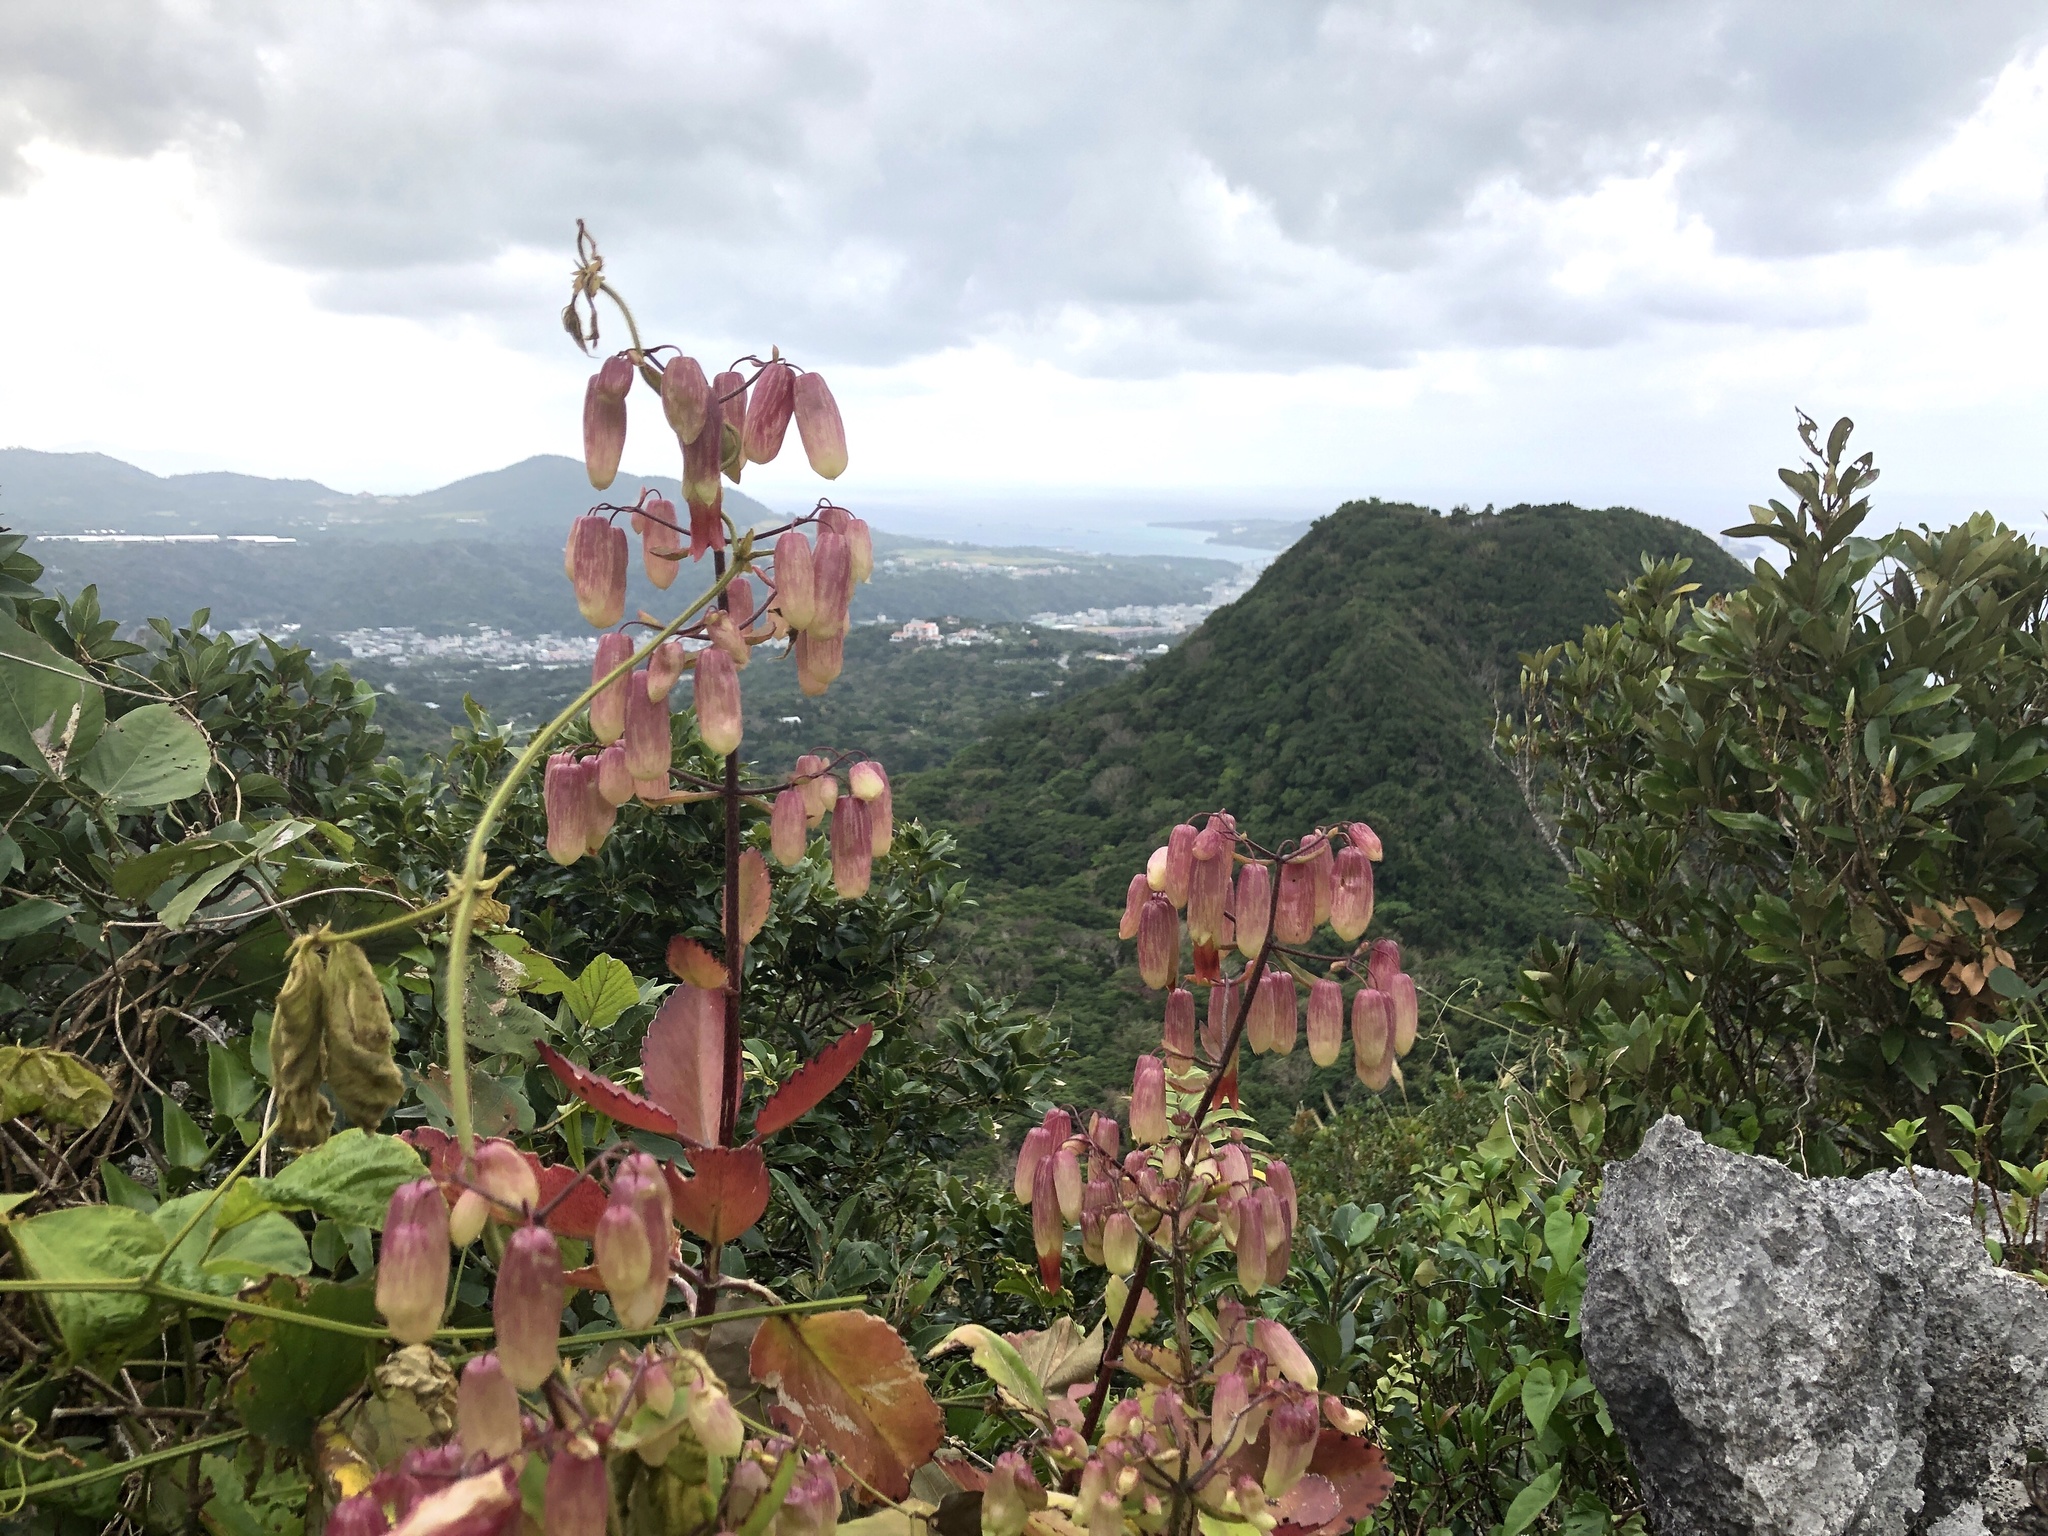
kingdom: Plantae
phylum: Tracheophyta
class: Magnoliopsida
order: Saxifragales
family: Crassulaceae
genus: Kalanchoe
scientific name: Kalanchoe pinnata
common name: Cathedral bells
